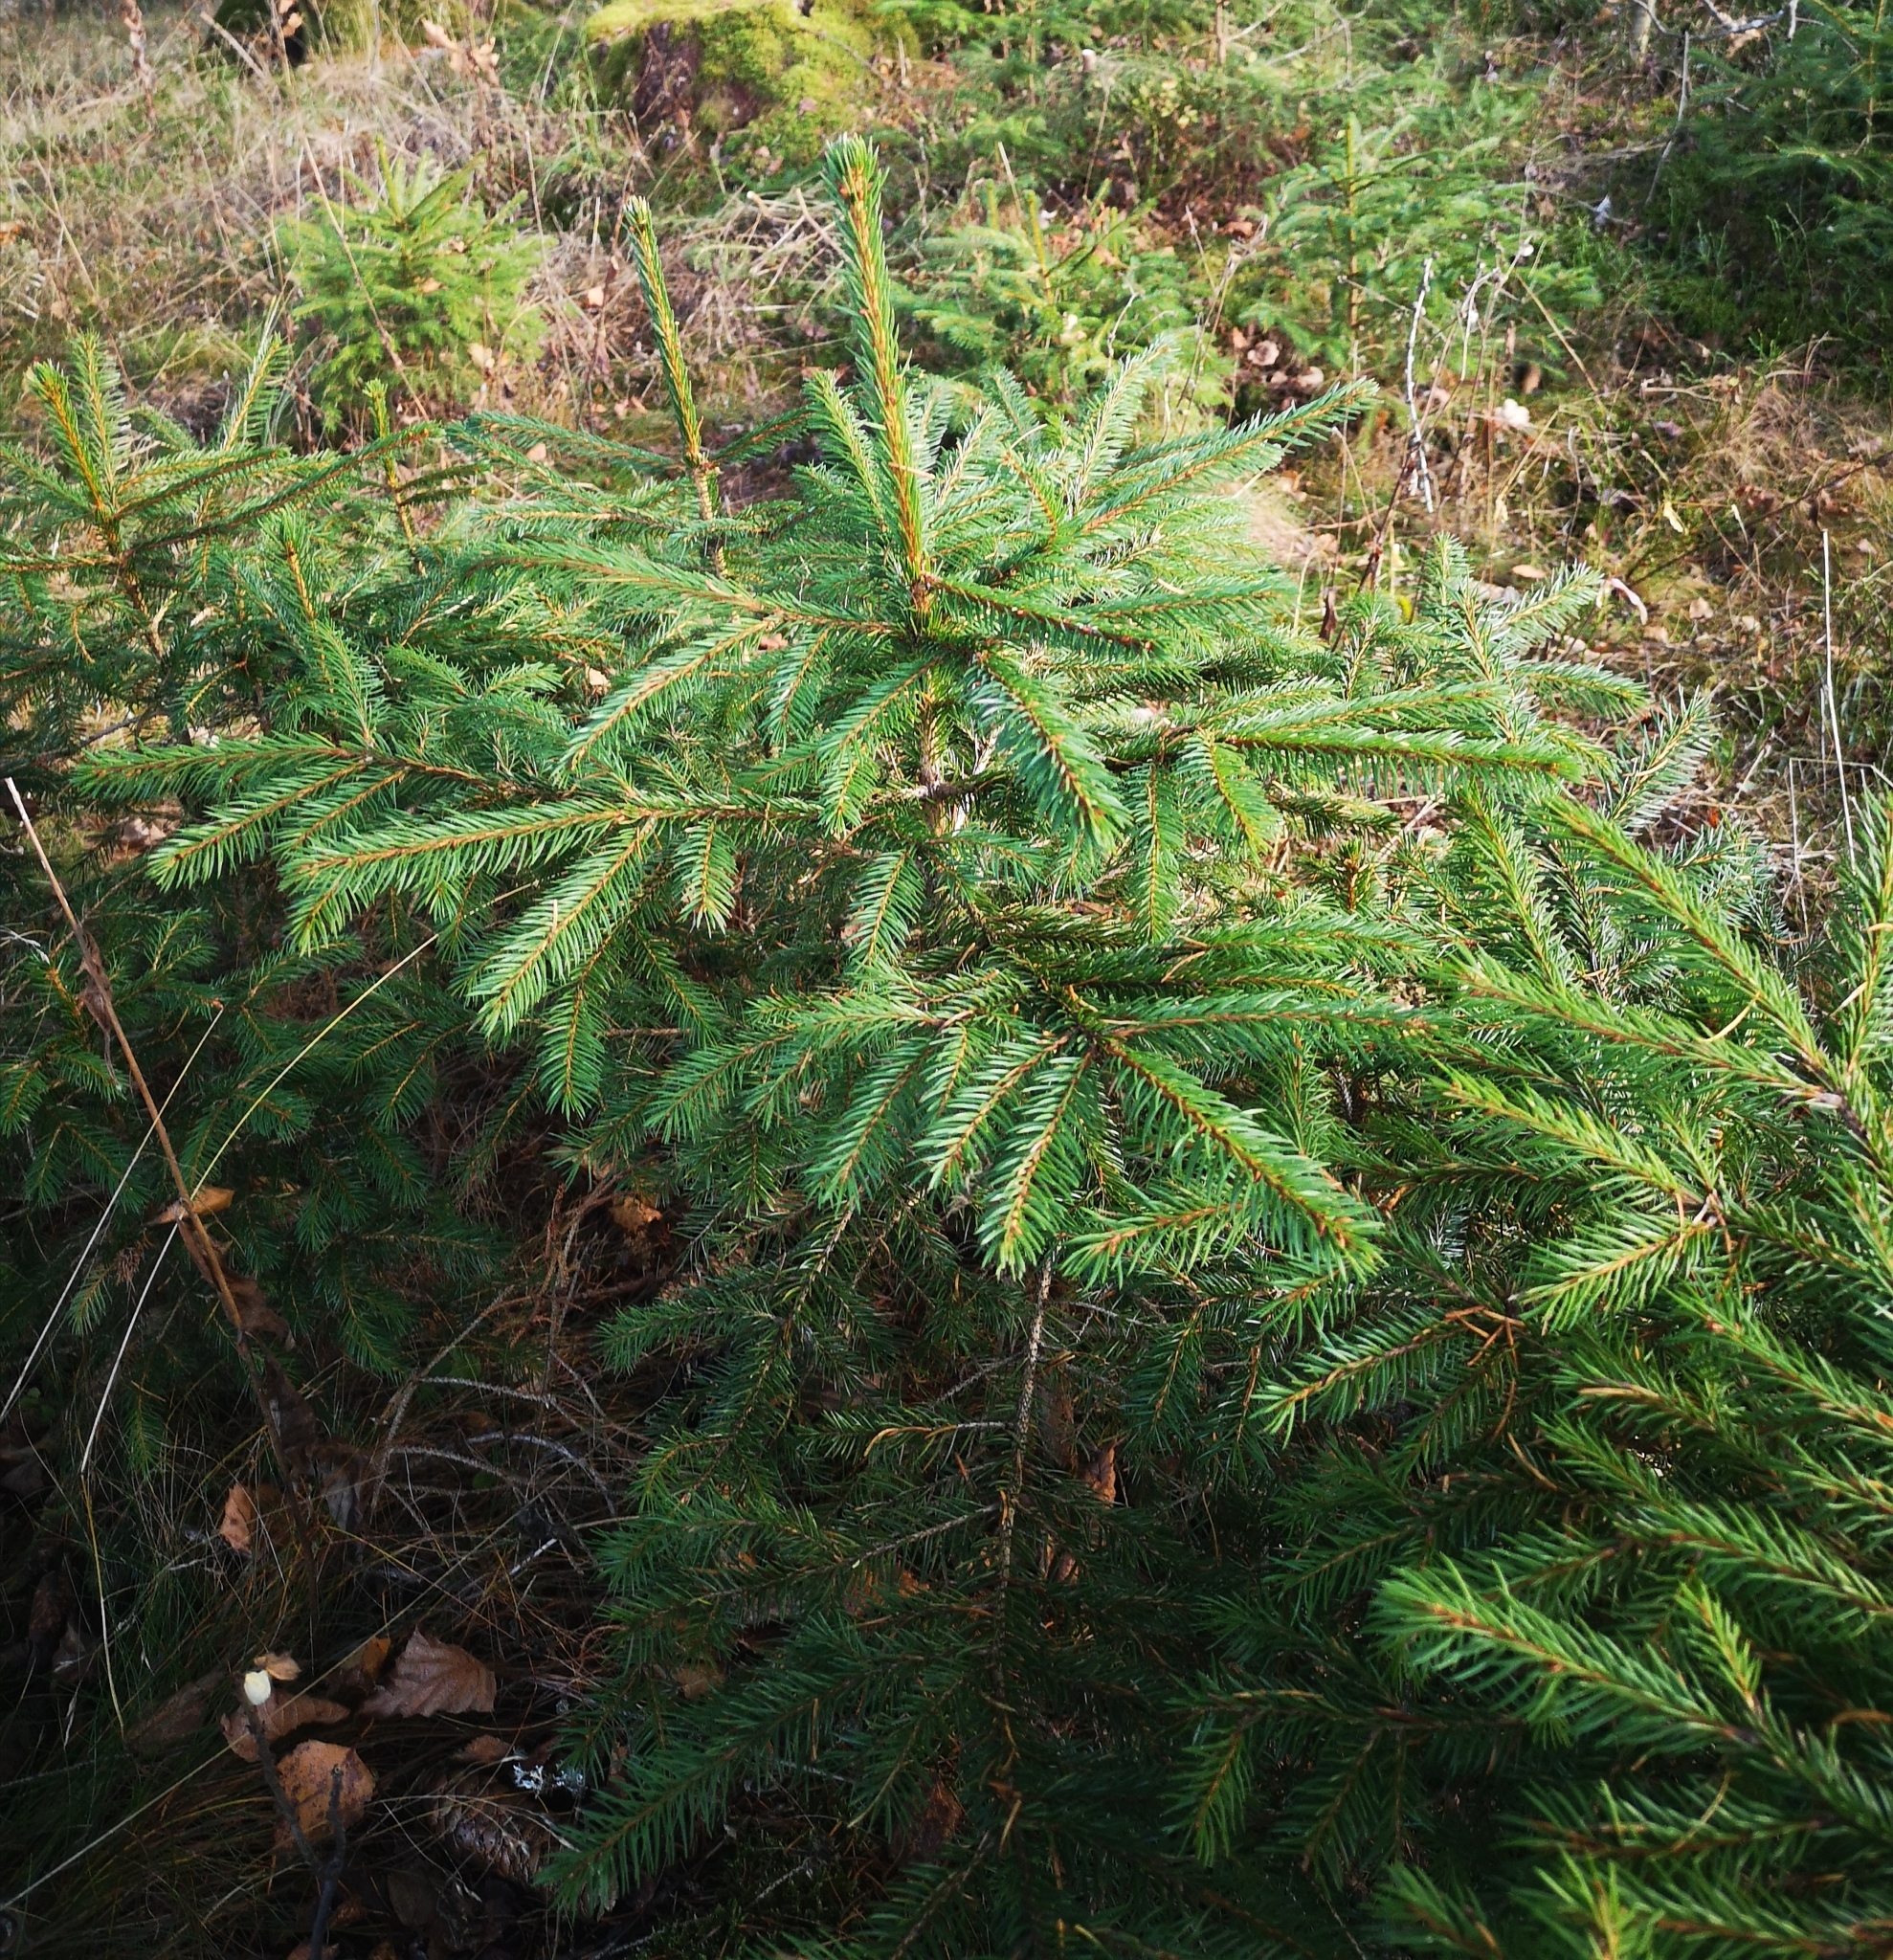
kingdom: Plantae
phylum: Tracheophyta
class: Pinopsida
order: Pinales
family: Pinaceae
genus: Picea
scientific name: Picea abies
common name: Norway spruce
